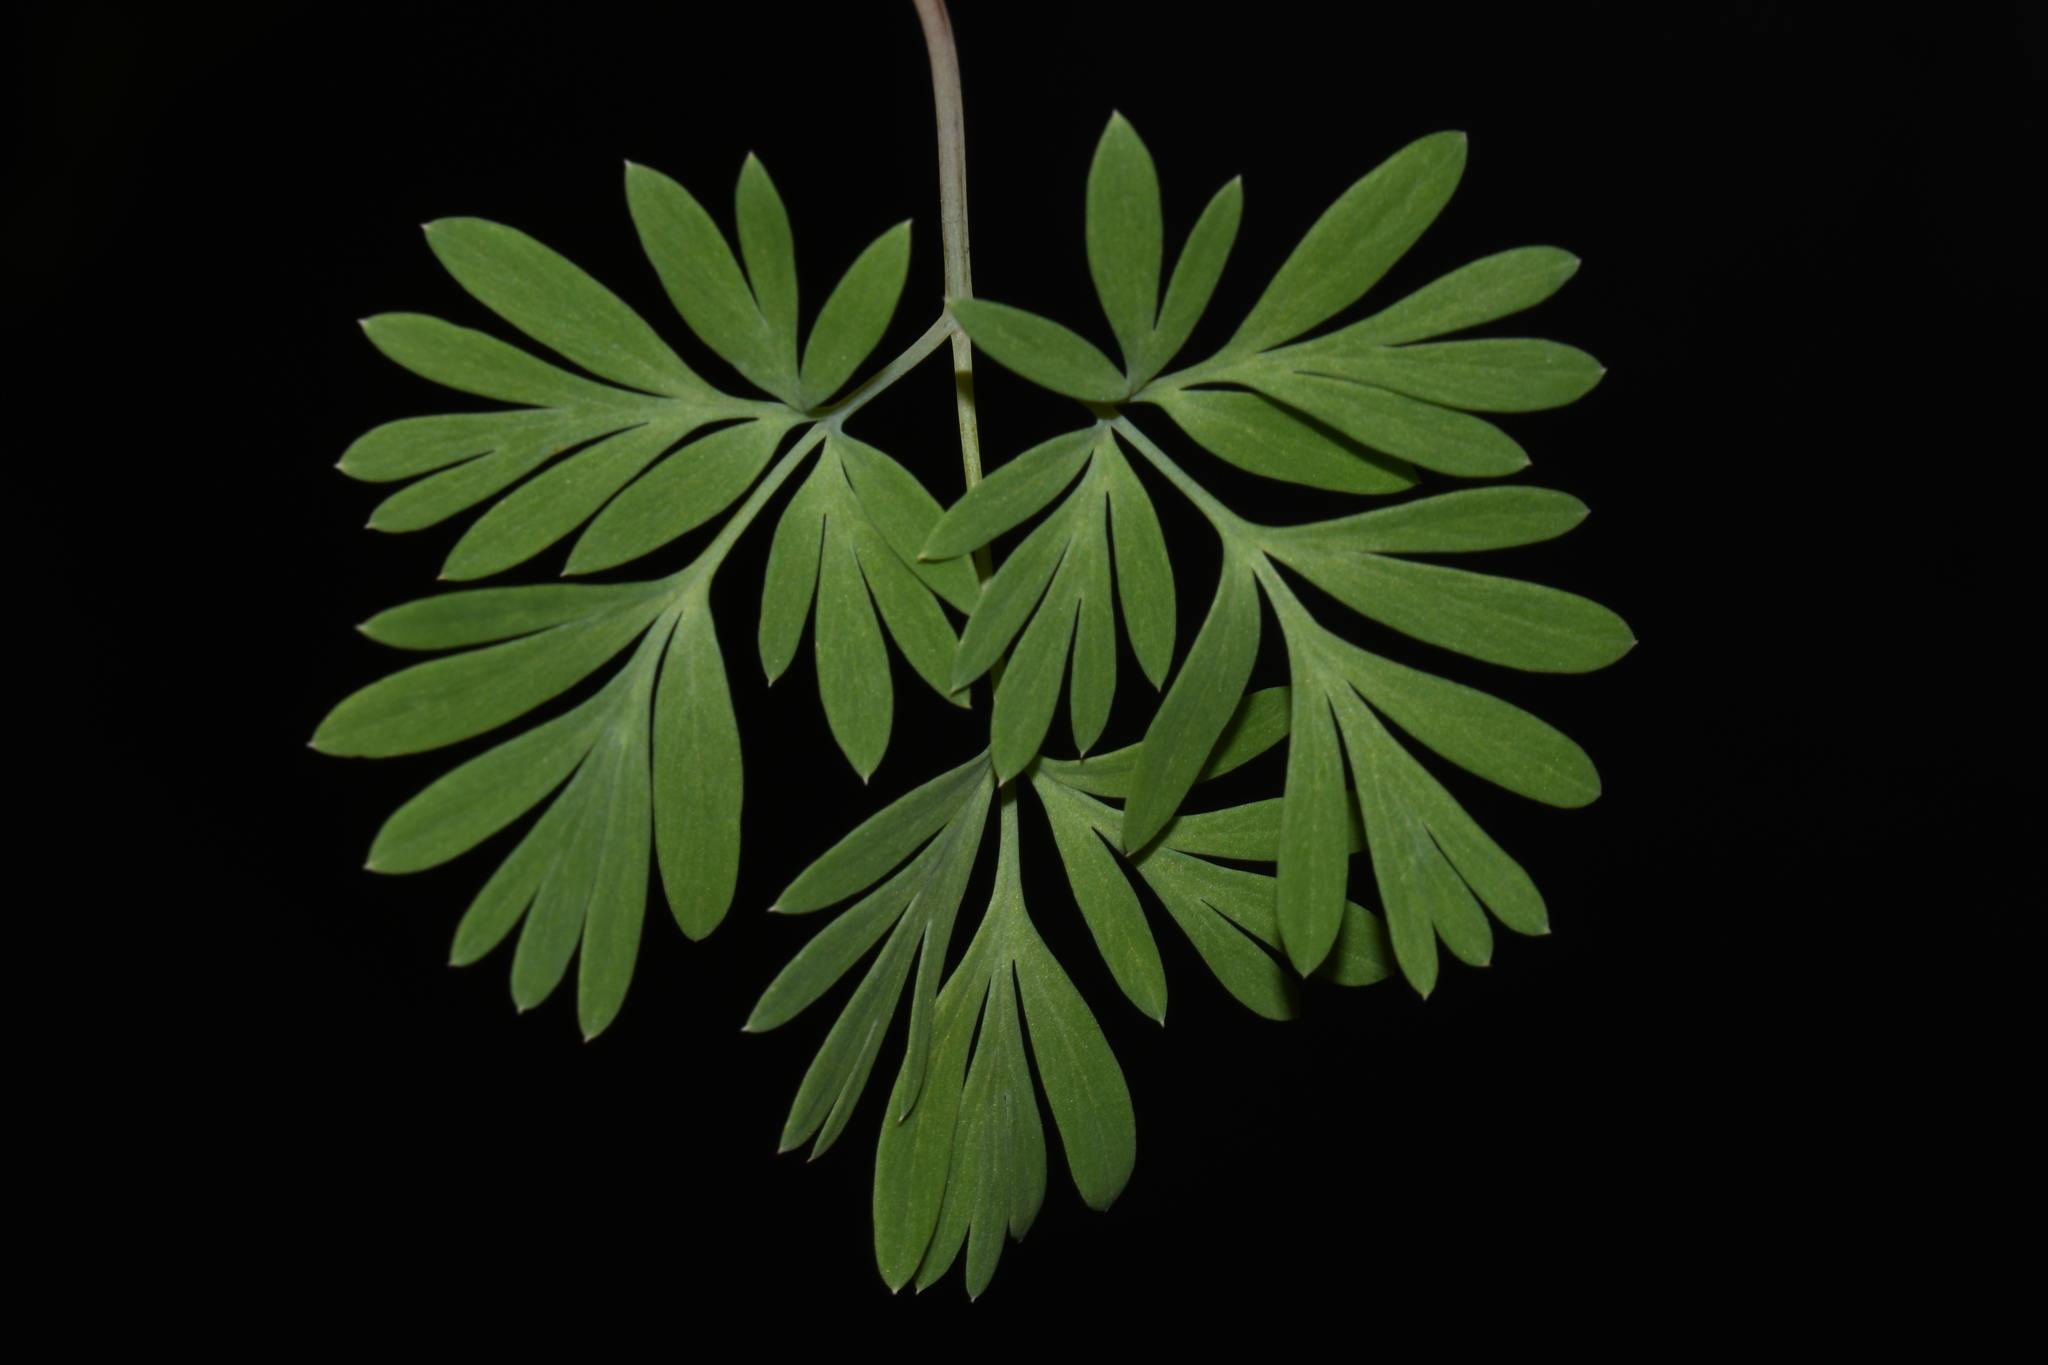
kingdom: Plantae
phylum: Tracheophyta
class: Magnoliopsida
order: Ranunculales
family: Papaveraceae
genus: Dicentra
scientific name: Dicentra canadensis
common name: Squirrel-corn
